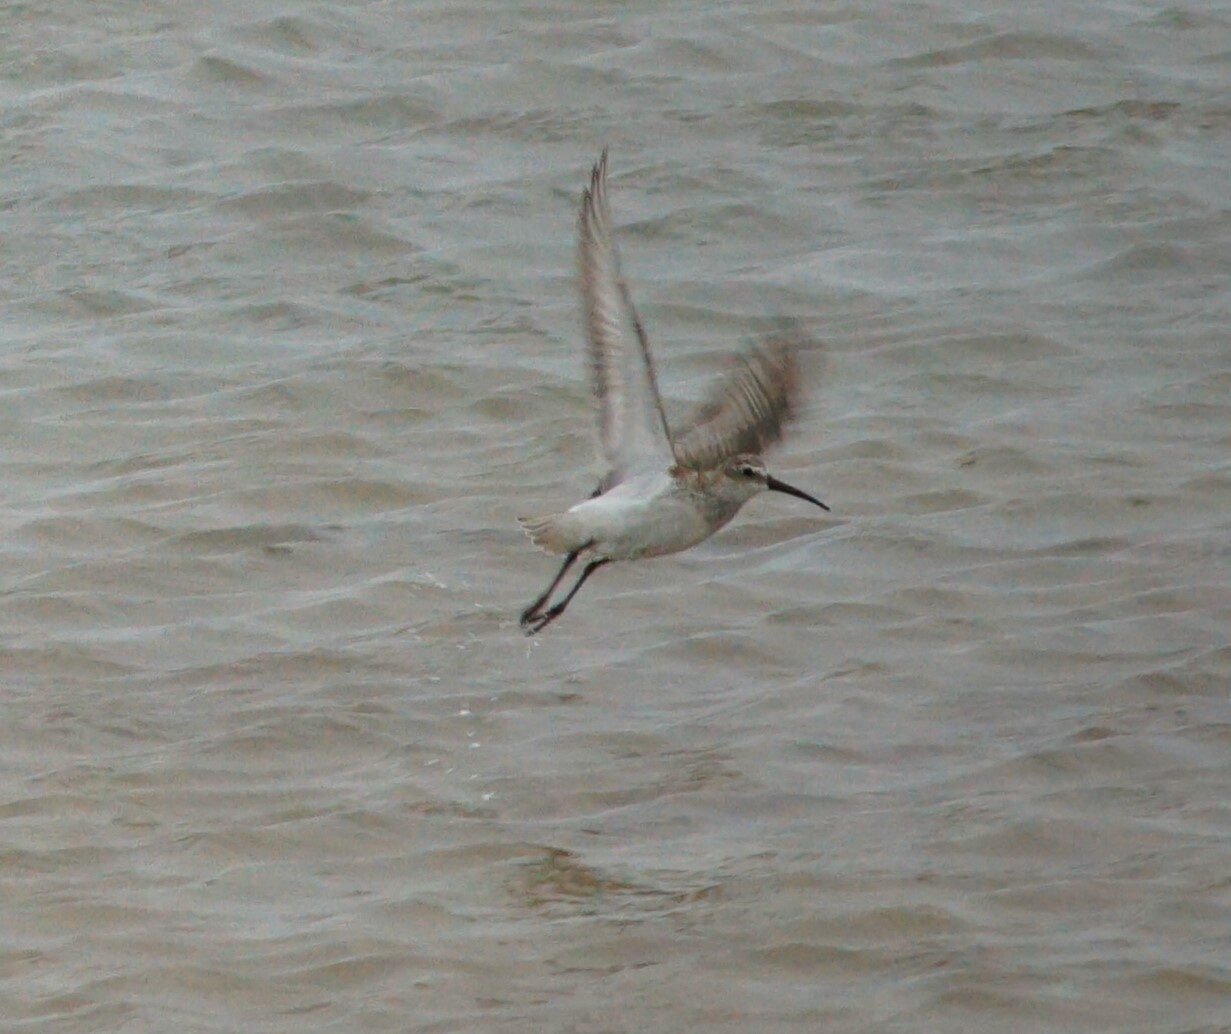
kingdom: Animalia
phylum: Chordata
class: Aves
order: Charadriiformes
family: Scolopacidae
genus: Calidris
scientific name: Calidris ferruginea
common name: Curlew sandpiper
